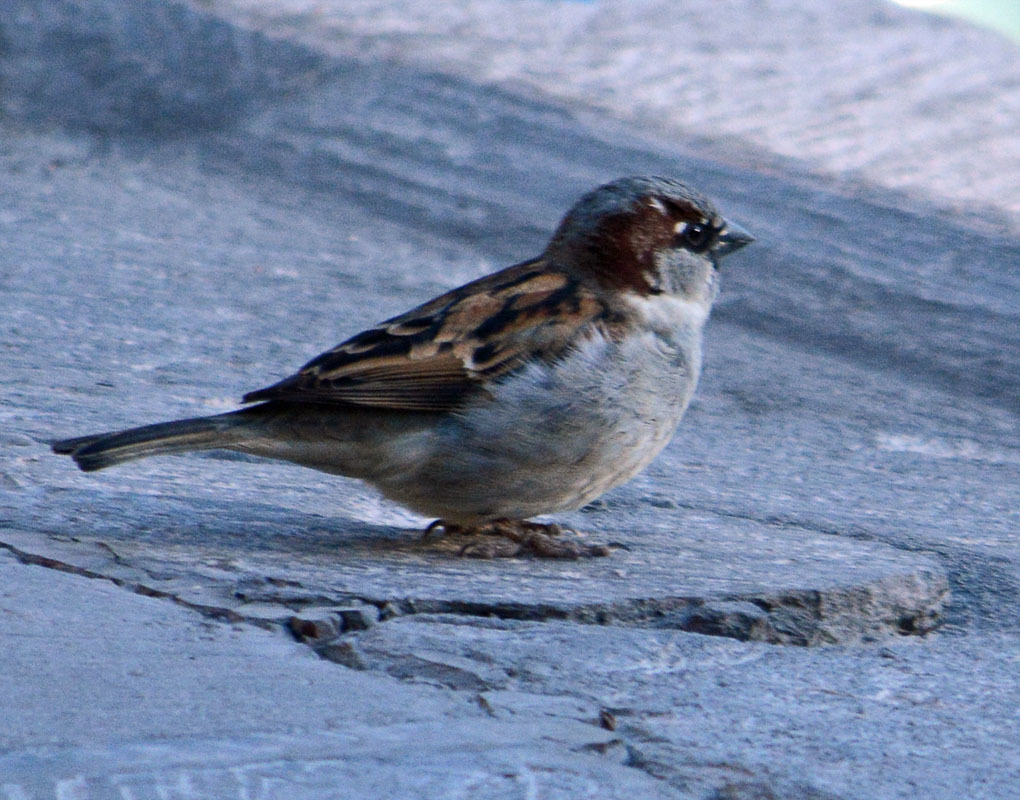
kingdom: Animalia
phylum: Chordata
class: Aves
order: Passeriformes
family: Passeridae
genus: Passer
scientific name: Passer domesticus
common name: House sparrow
